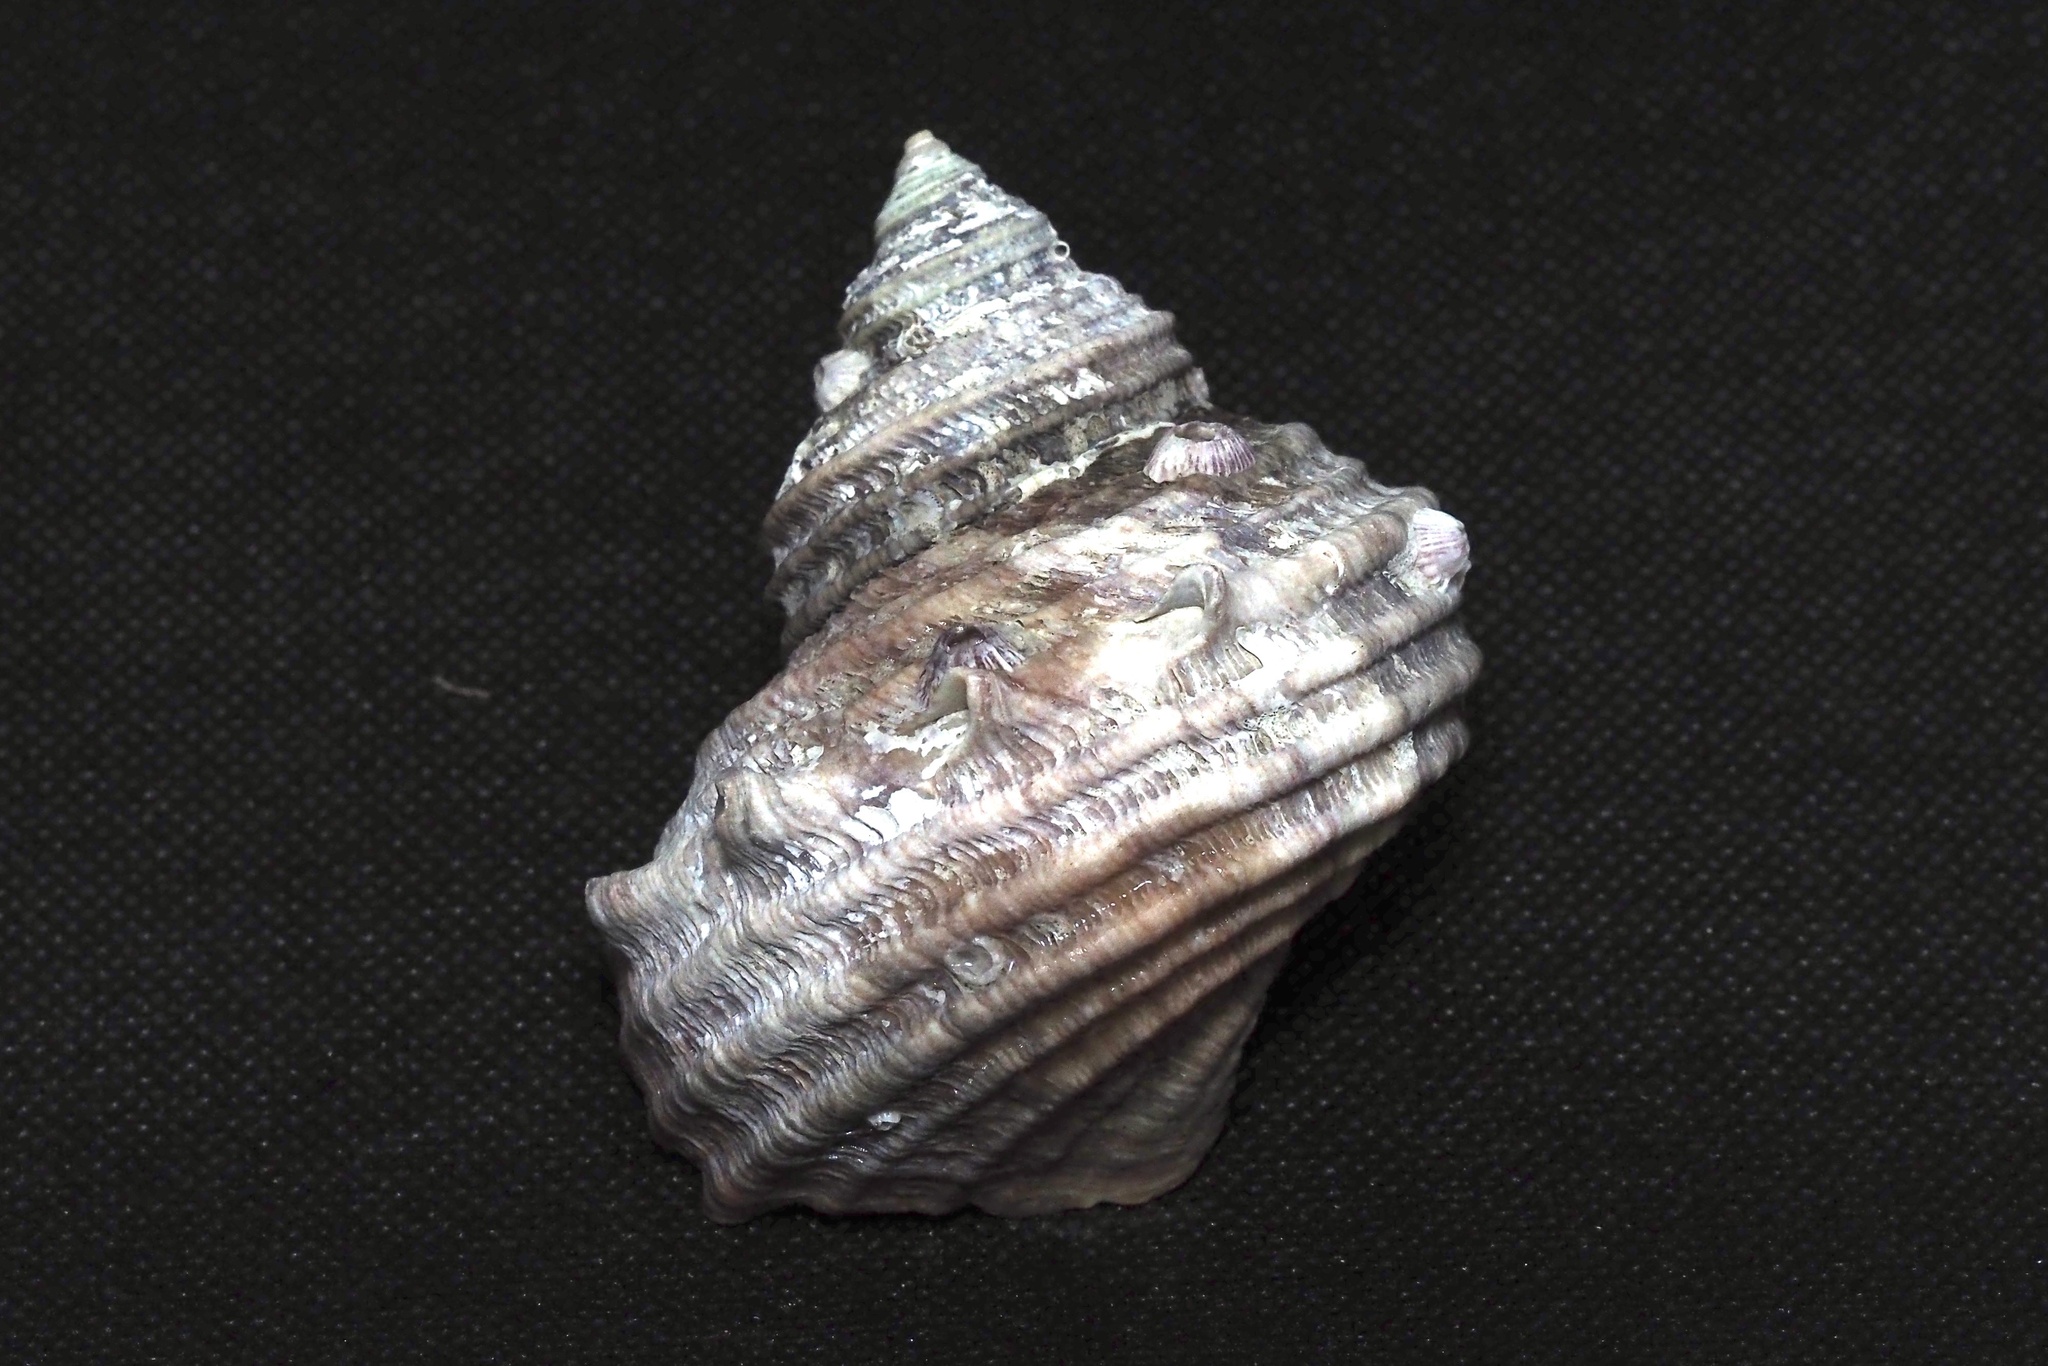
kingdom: Animalia
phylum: Mollusca
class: Gastropoda
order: Trochida
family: Turbinidae
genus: Turbo
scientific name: Turbo sazae
